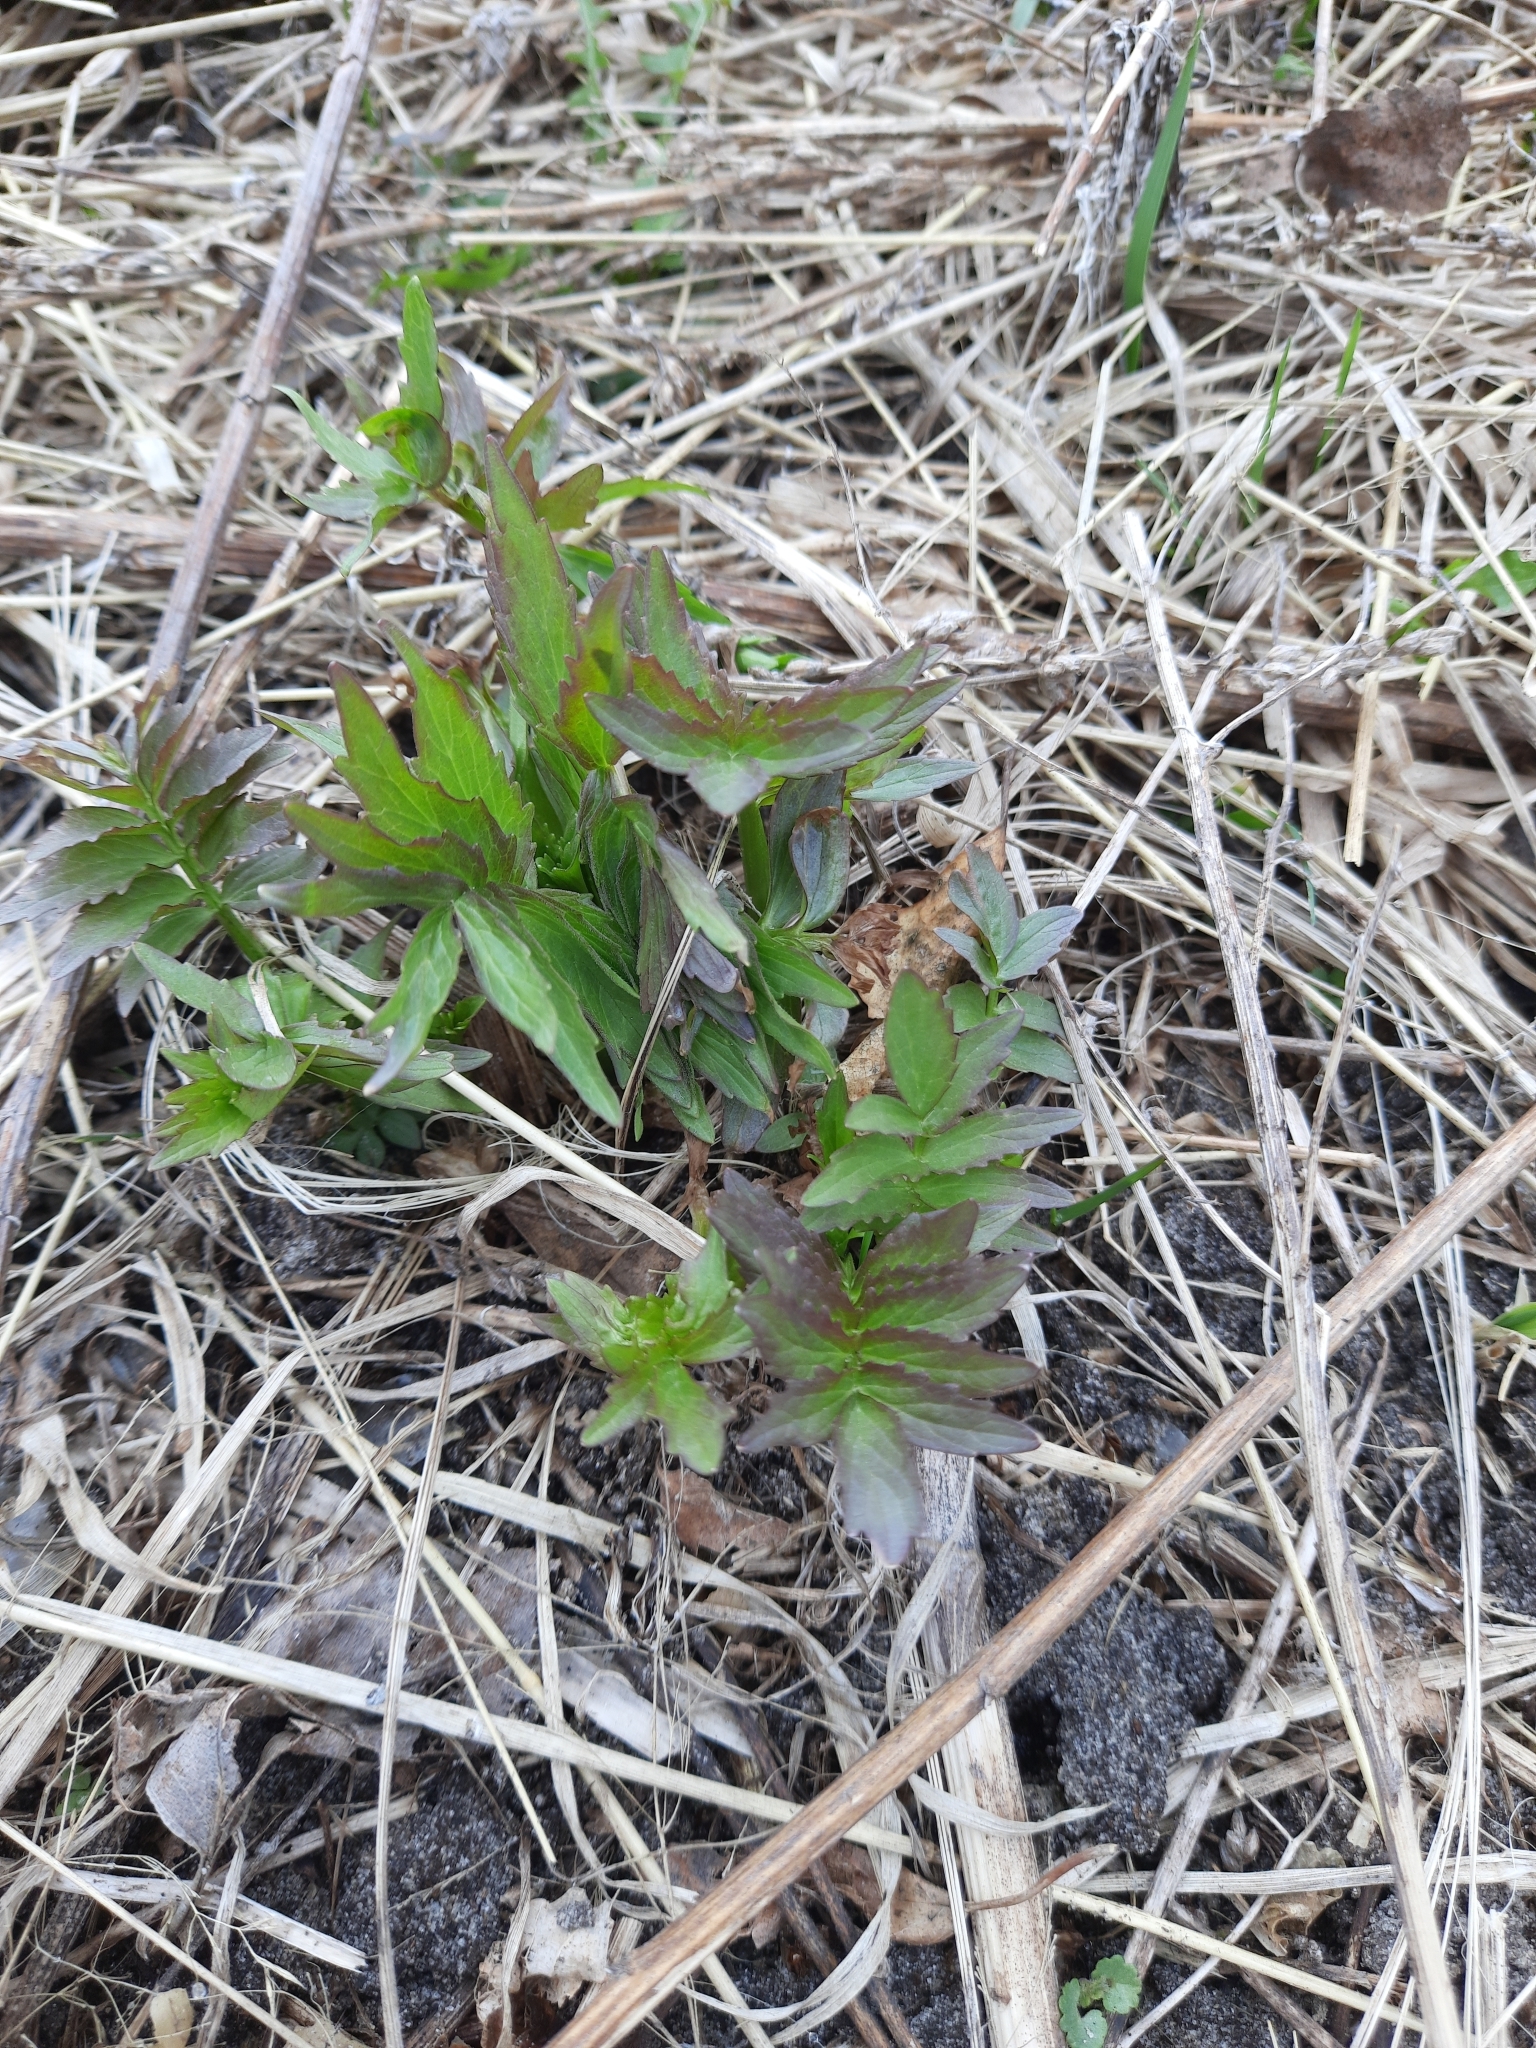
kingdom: Plantae
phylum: Tracheophyta
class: Magnoliopsida
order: Dipsacales
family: Caprifoliaceae
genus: Valeriana
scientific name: Valeriana wolgensis
